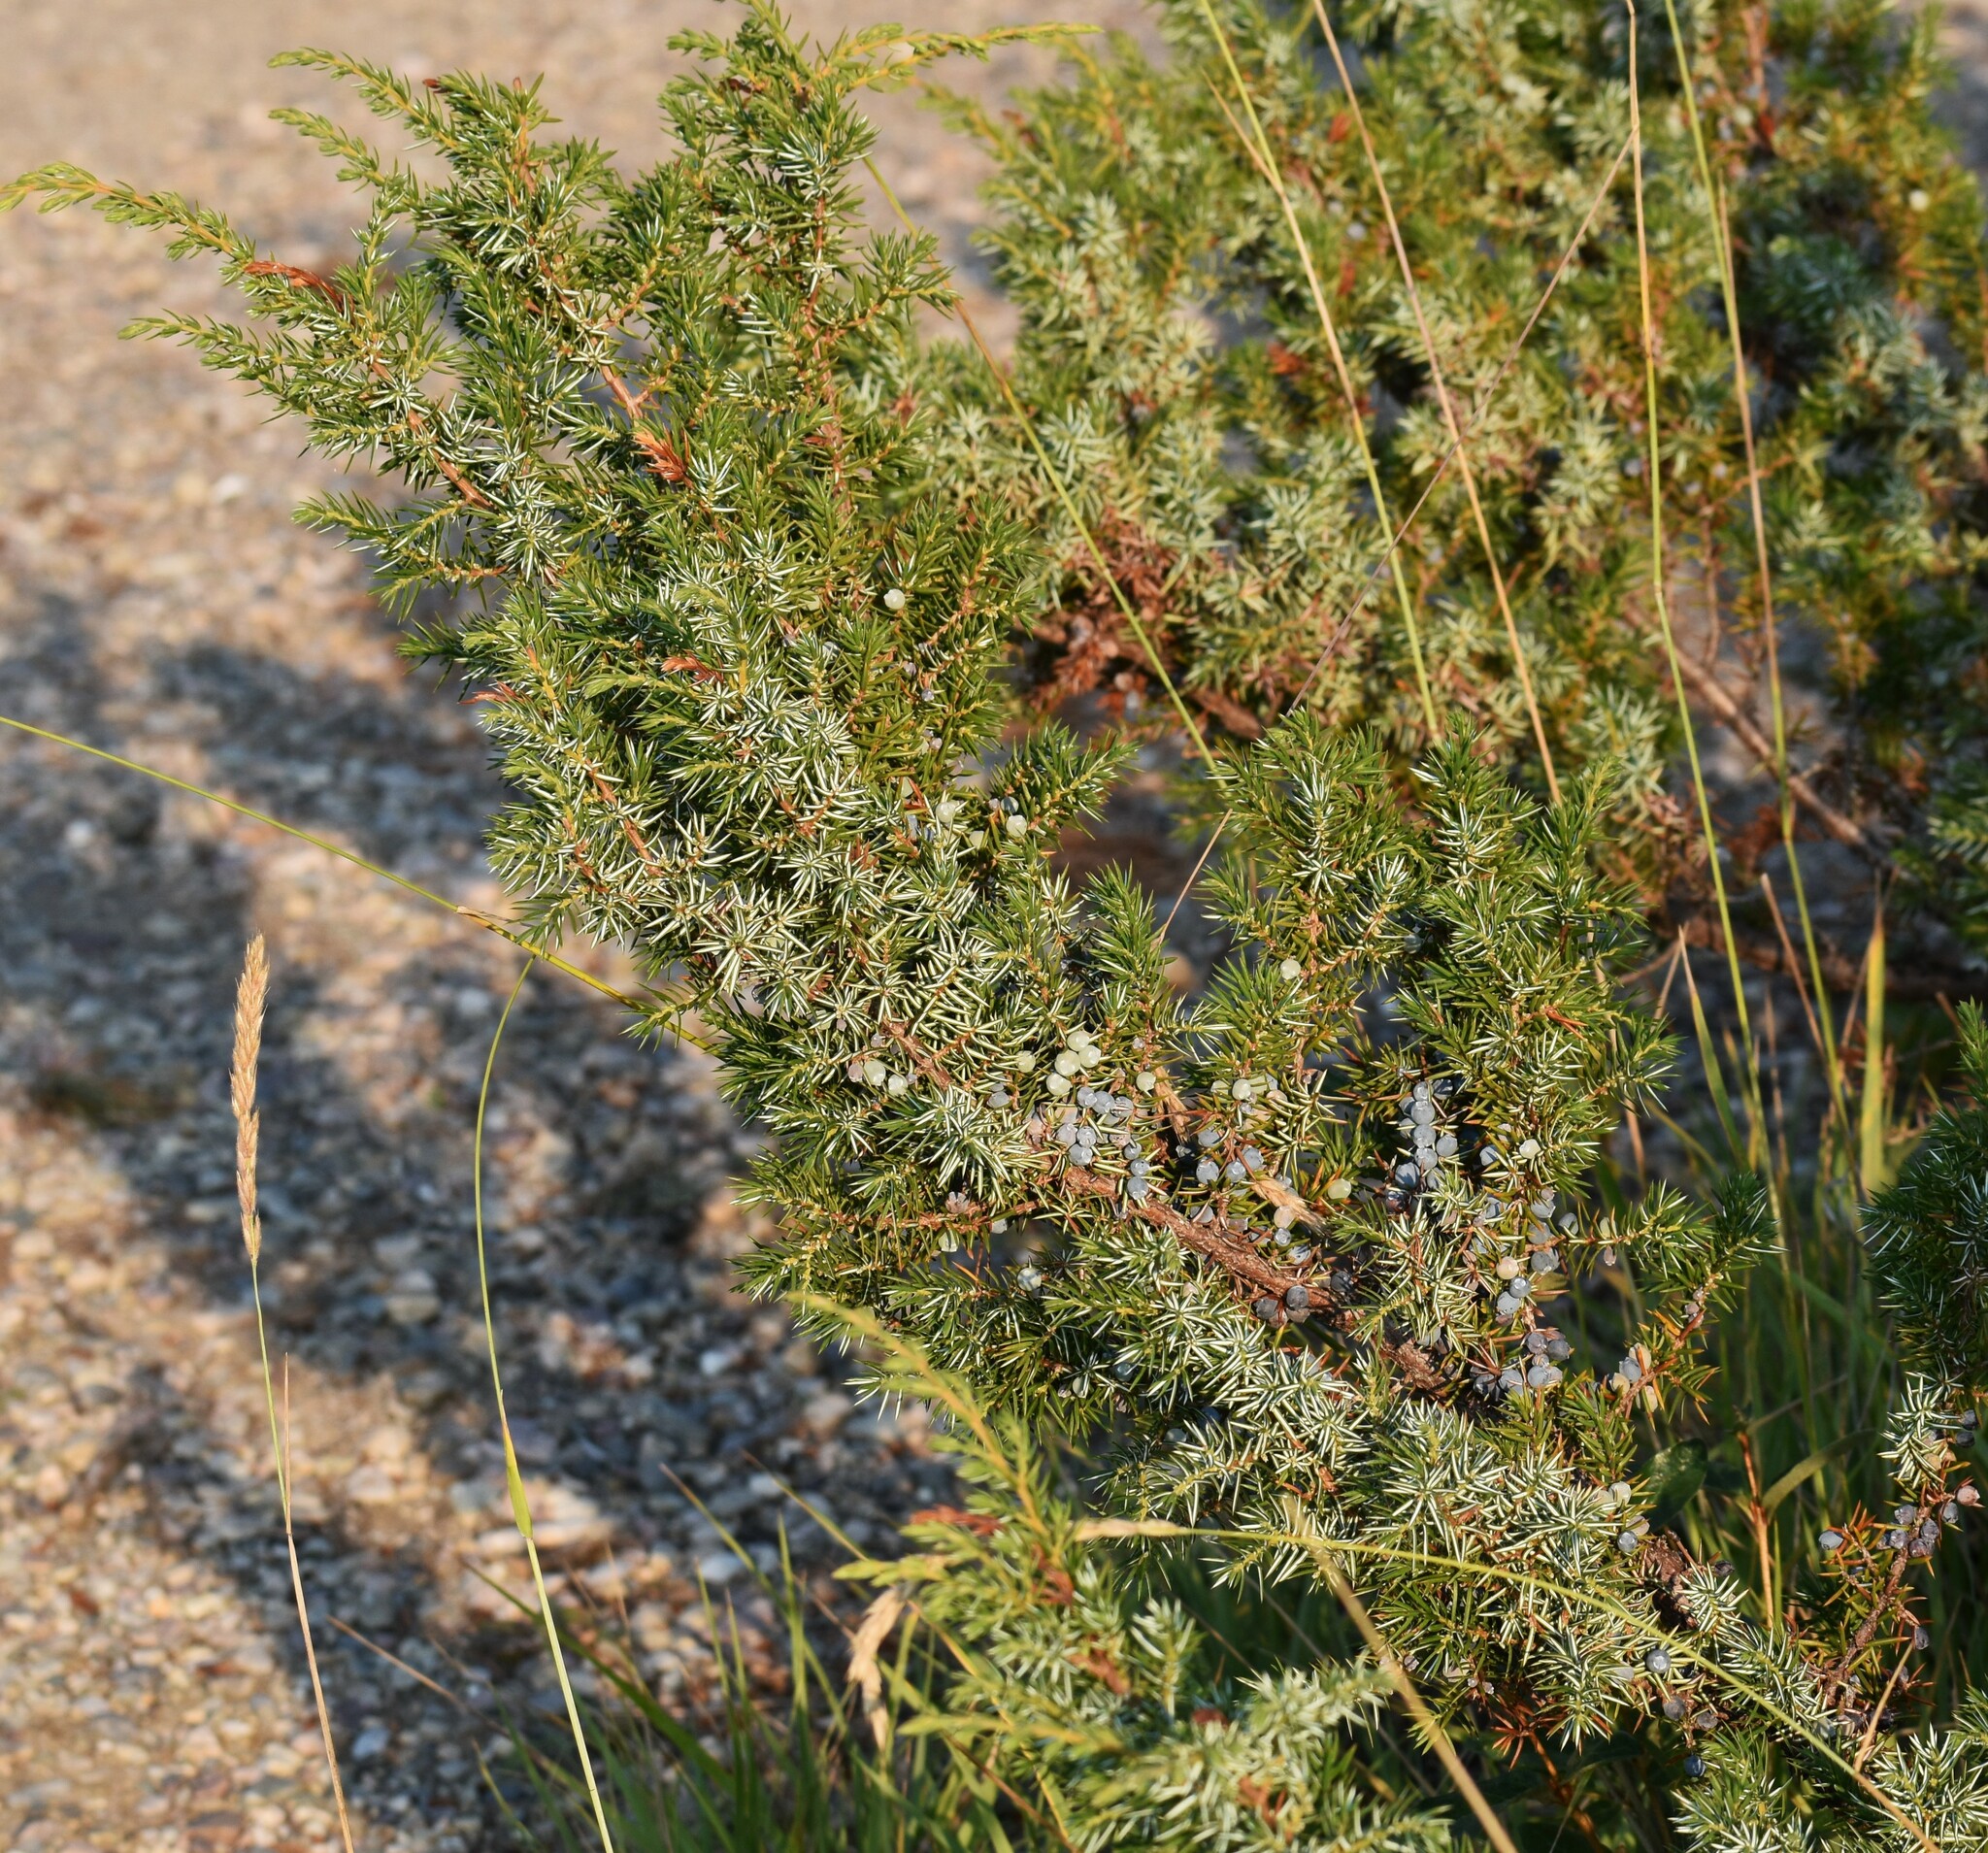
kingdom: Plantae
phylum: Tracheophyta
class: Pinopsida
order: Pinales
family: Cupressaceae
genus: Juniperus
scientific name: Juniperus communis
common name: Common juniper
